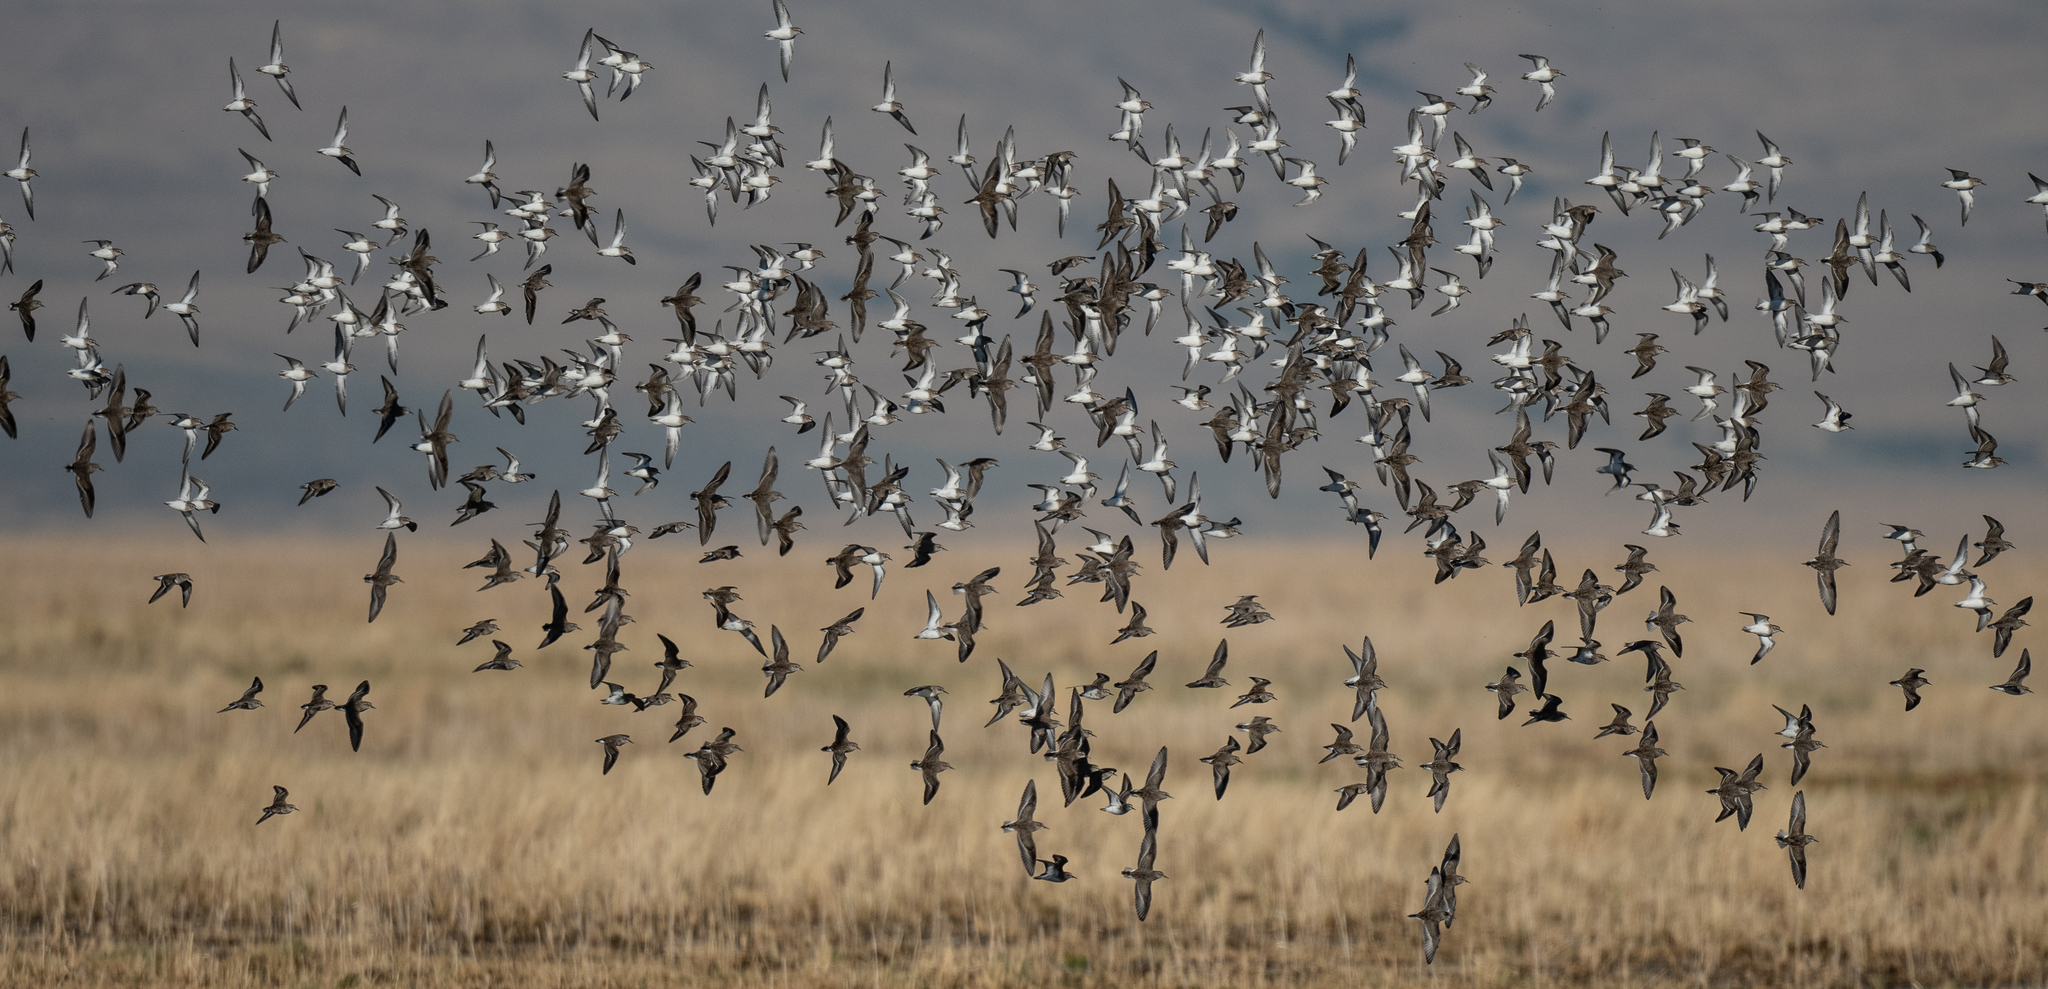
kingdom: Animalia
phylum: Chordata
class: Aves
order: Charadriiformes
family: Scolopacidae
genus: Calidris
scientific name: Calidris minutilla
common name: Least sandpiper
